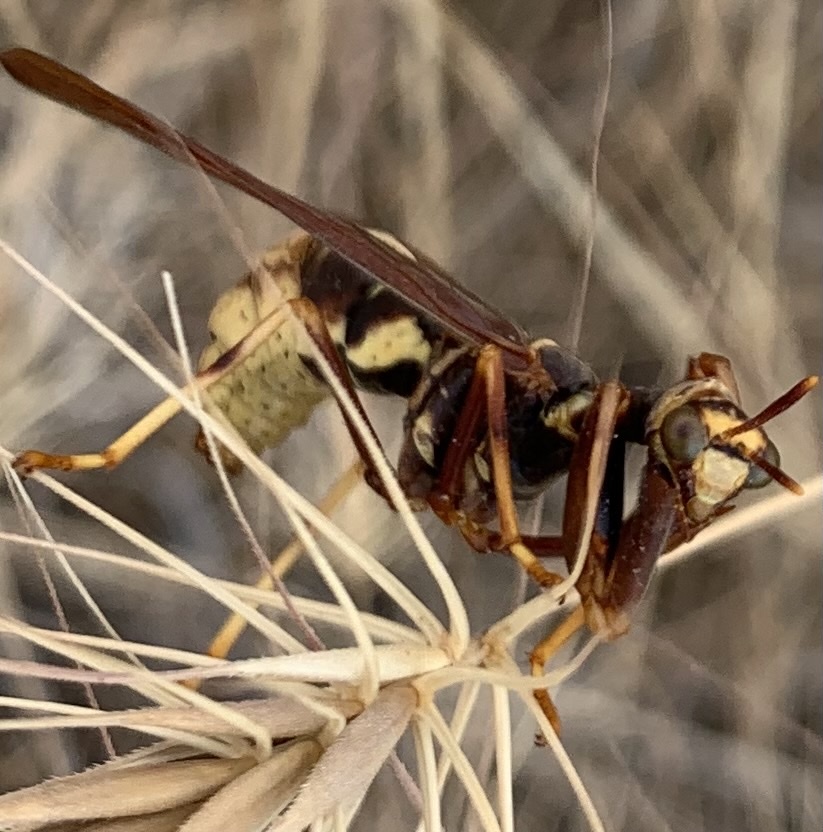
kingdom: Animalia
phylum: Arthropoda
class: Insecta
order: Neuroptera
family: Mantispidae
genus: Climaciella
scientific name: Climaciella brunnea
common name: Brown wasp mantidfly
